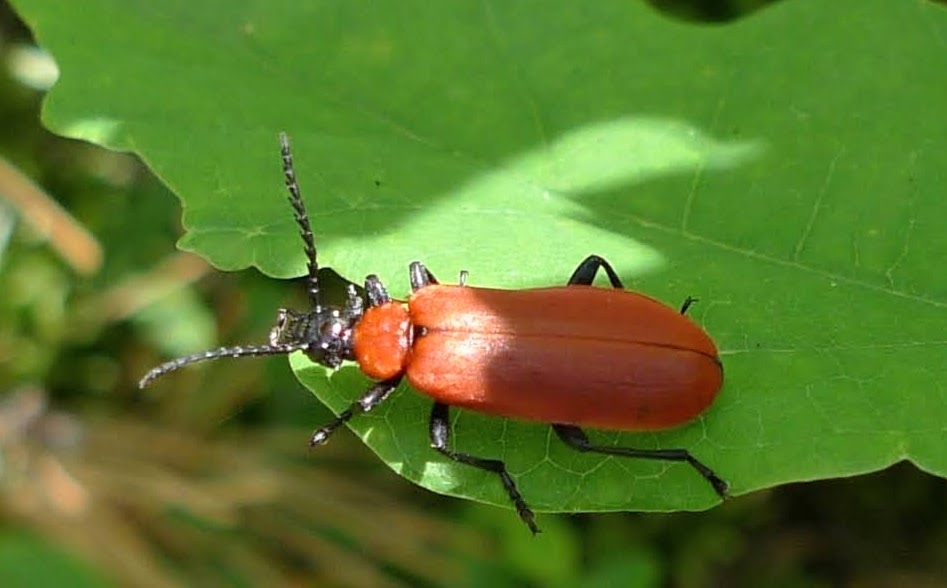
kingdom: Animalia
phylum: Arthropoda
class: Insecta
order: Coleoptera
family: Pyrochroidae
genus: Pyrochroa
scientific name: Pyrochroa coccinea
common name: Black-headed cardinal beetle
